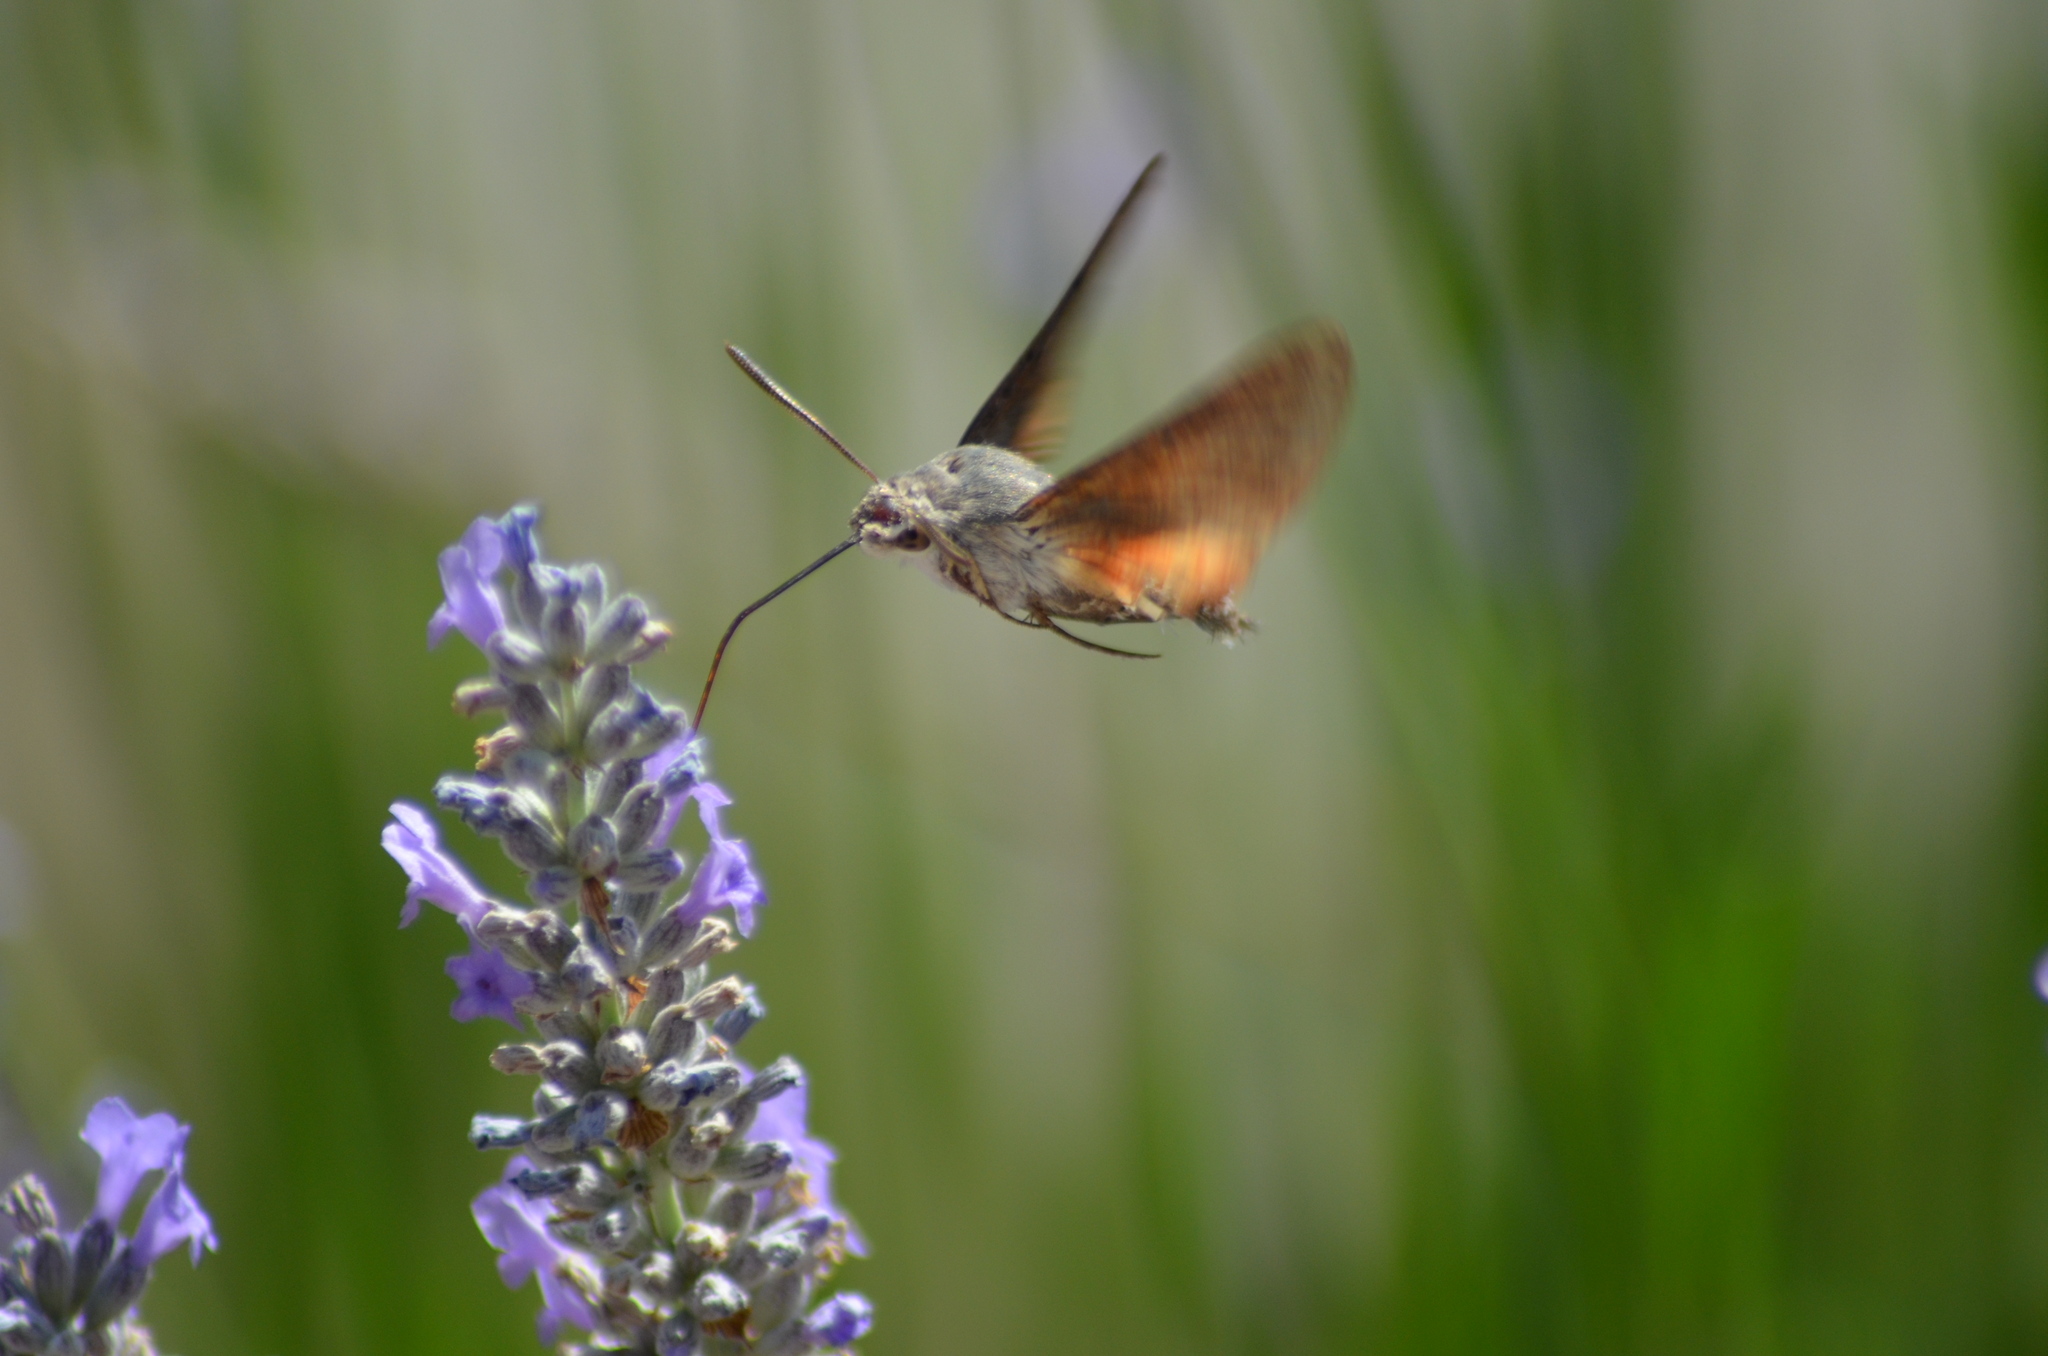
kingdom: Animalia
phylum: Arthropoda
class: Insecta
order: Lepidoptera
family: Sphingidae
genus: Macroglossum
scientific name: Macroglossum stellatarum
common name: Humming-bird hawk-moth
